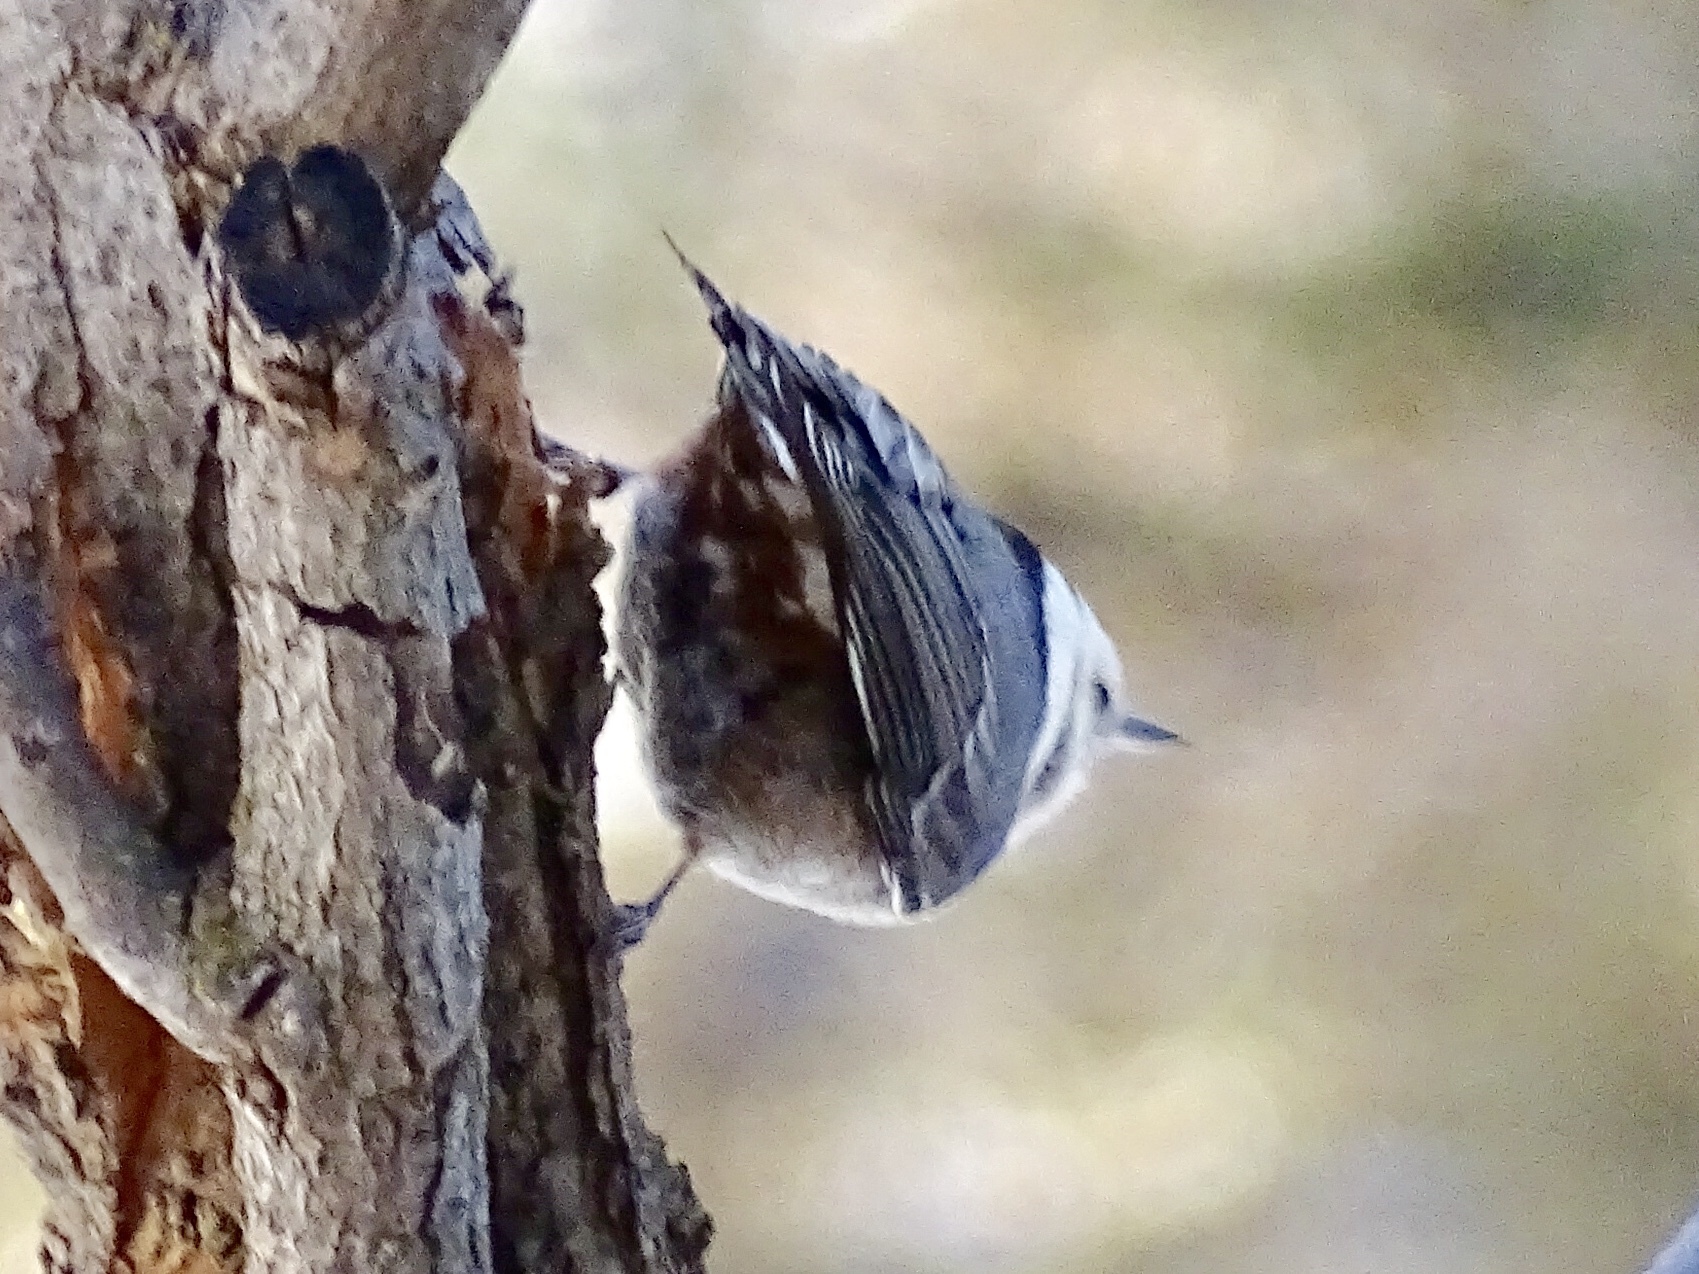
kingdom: Animalia
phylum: Chordata
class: Aves
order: Passeriformes
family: Sittidae
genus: Sitta
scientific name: Sitta carolinensis
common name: White-breasted nuthatch
